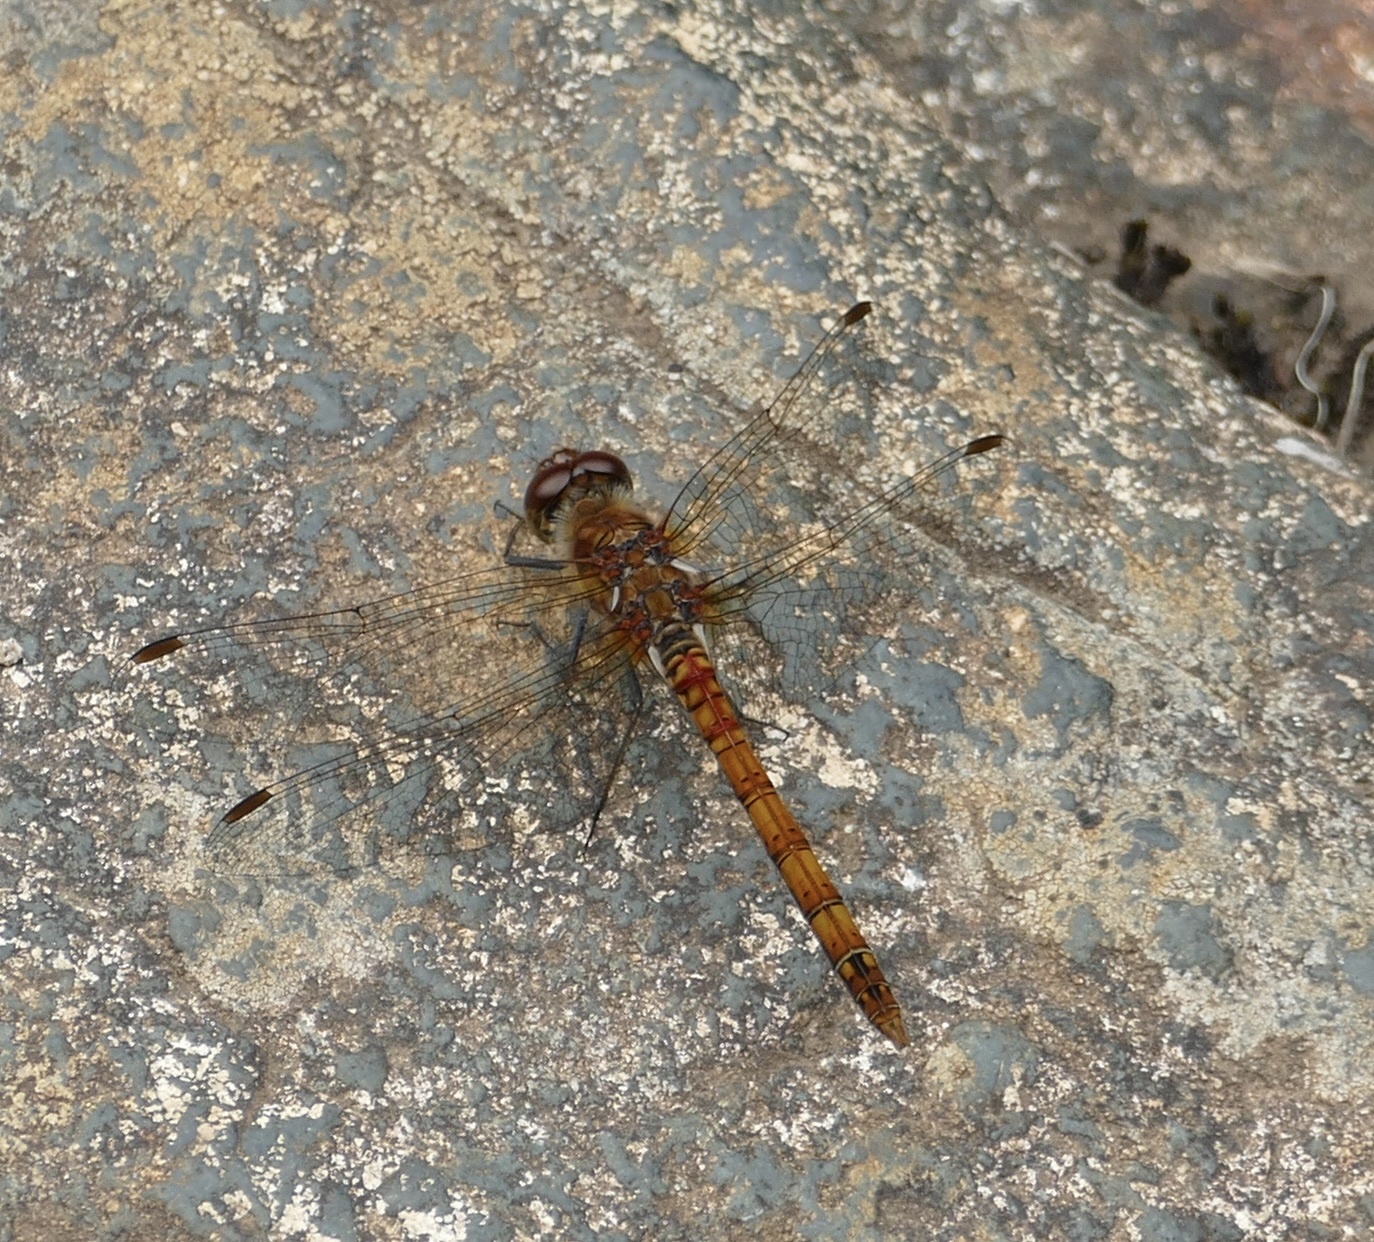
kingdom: Animalia
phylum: Arthropoda
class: Insecta
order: Odonata
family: Libellulidae
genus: Sympetrum
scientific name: Sympetrum striolatum
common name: Common darter
